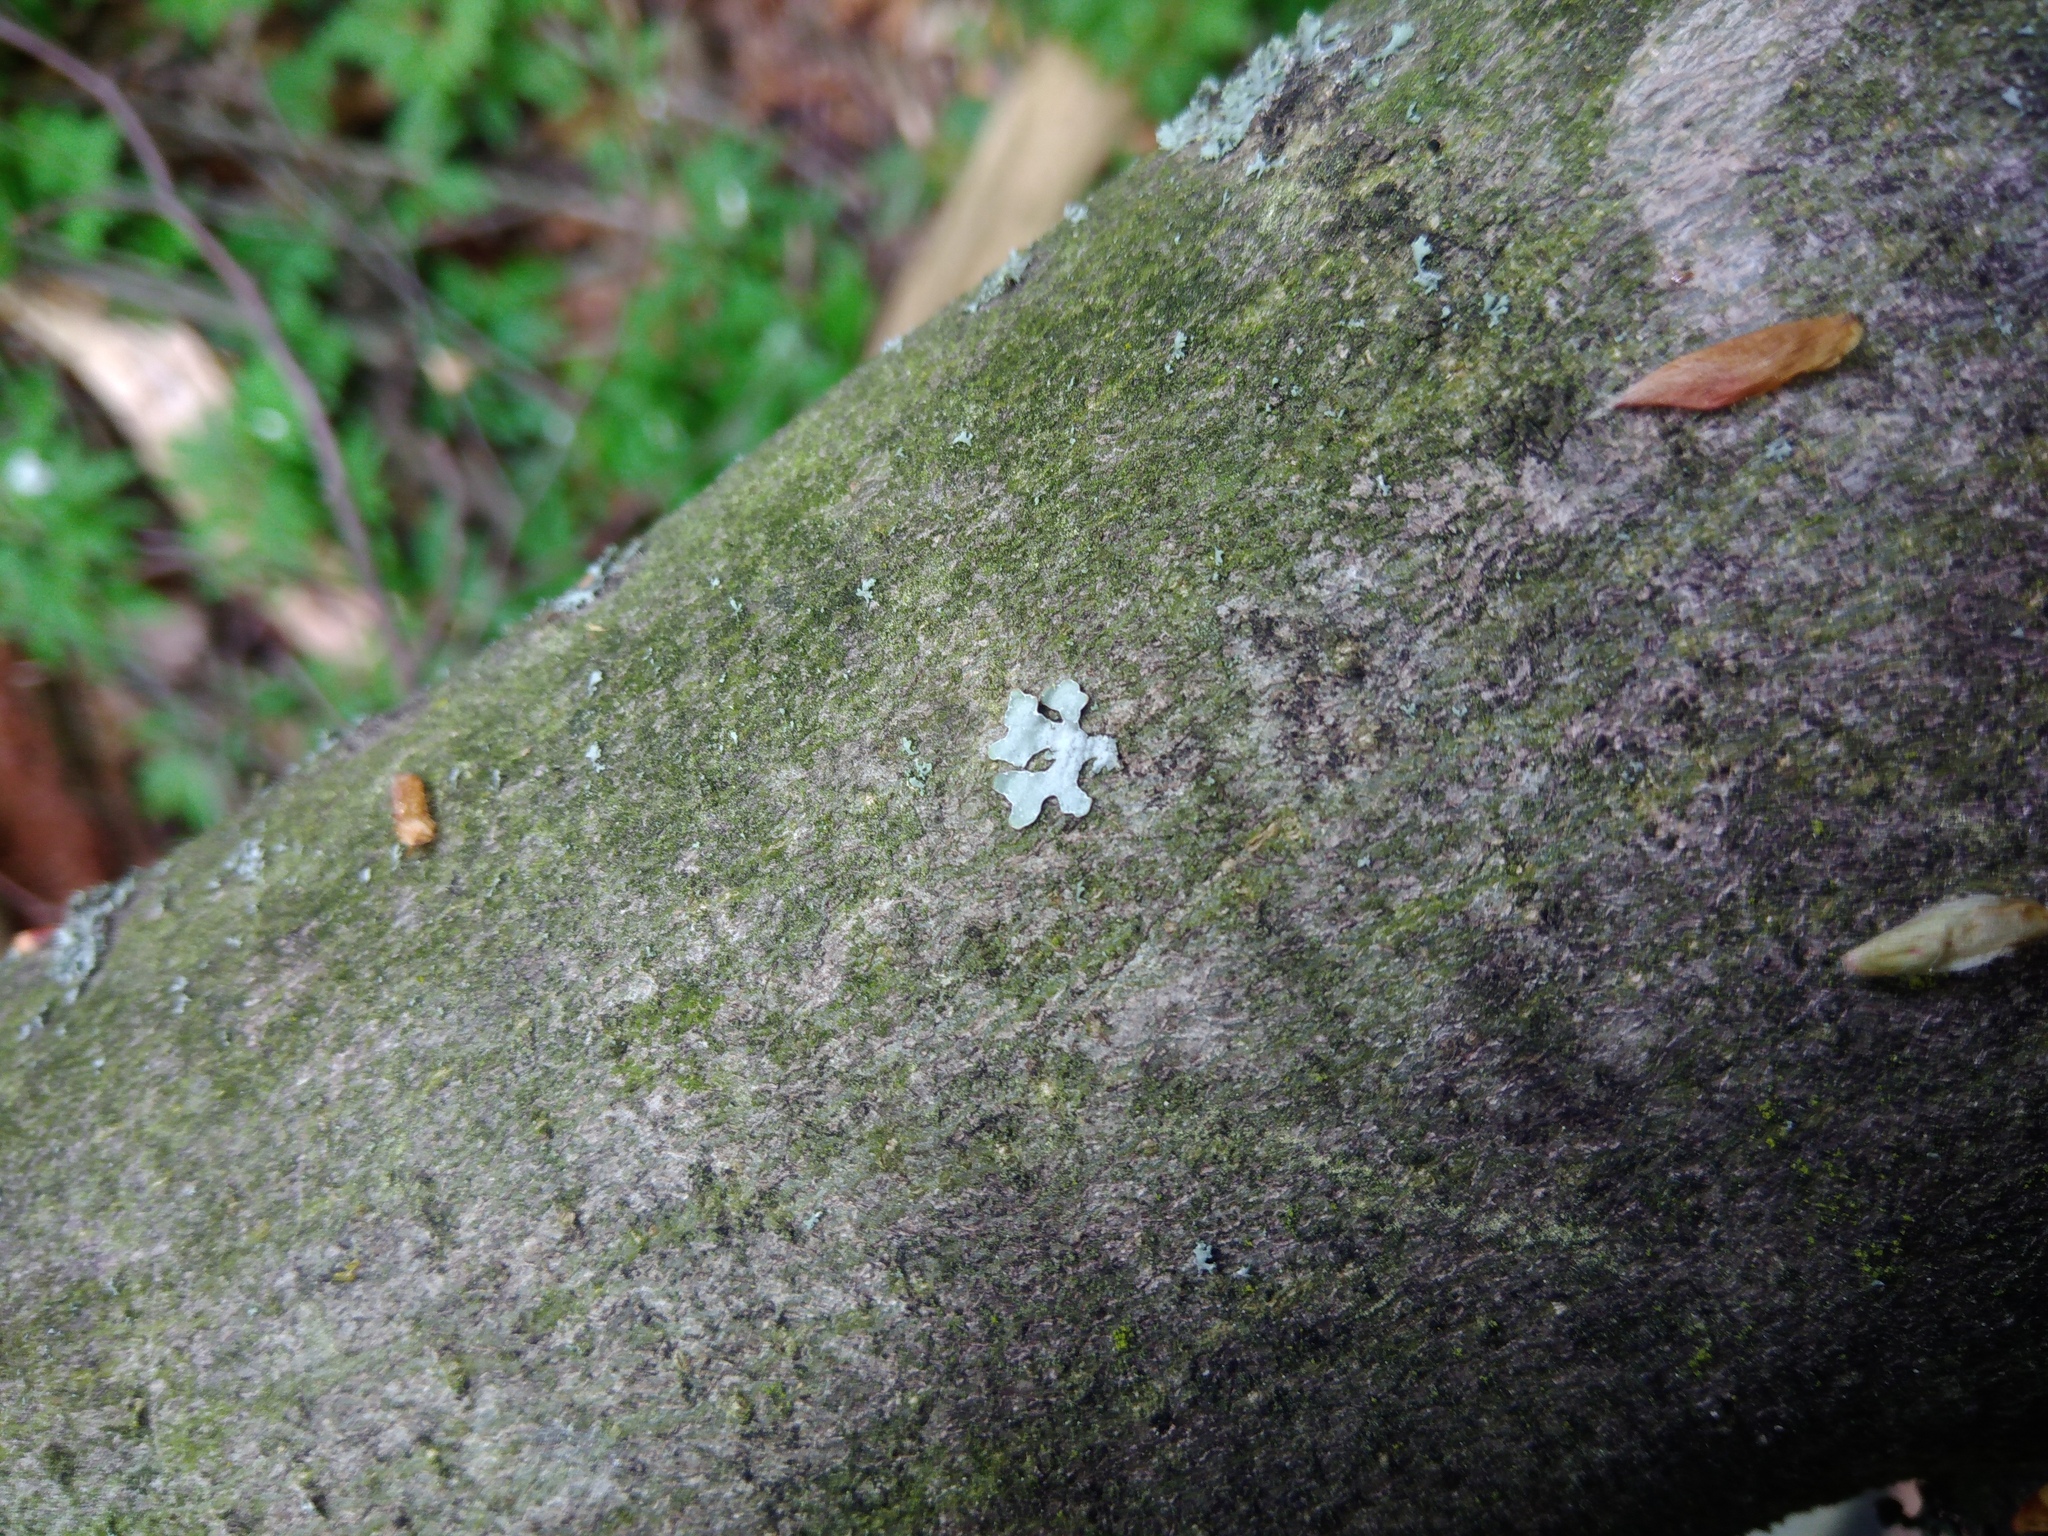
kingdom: Fungi
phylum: Ascomycota
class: Lecanoromycetes
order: Lecanorales
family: Parmeliaceae
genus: Parmelia
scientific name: Parmelia sulcata
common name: Netted shield lichen
